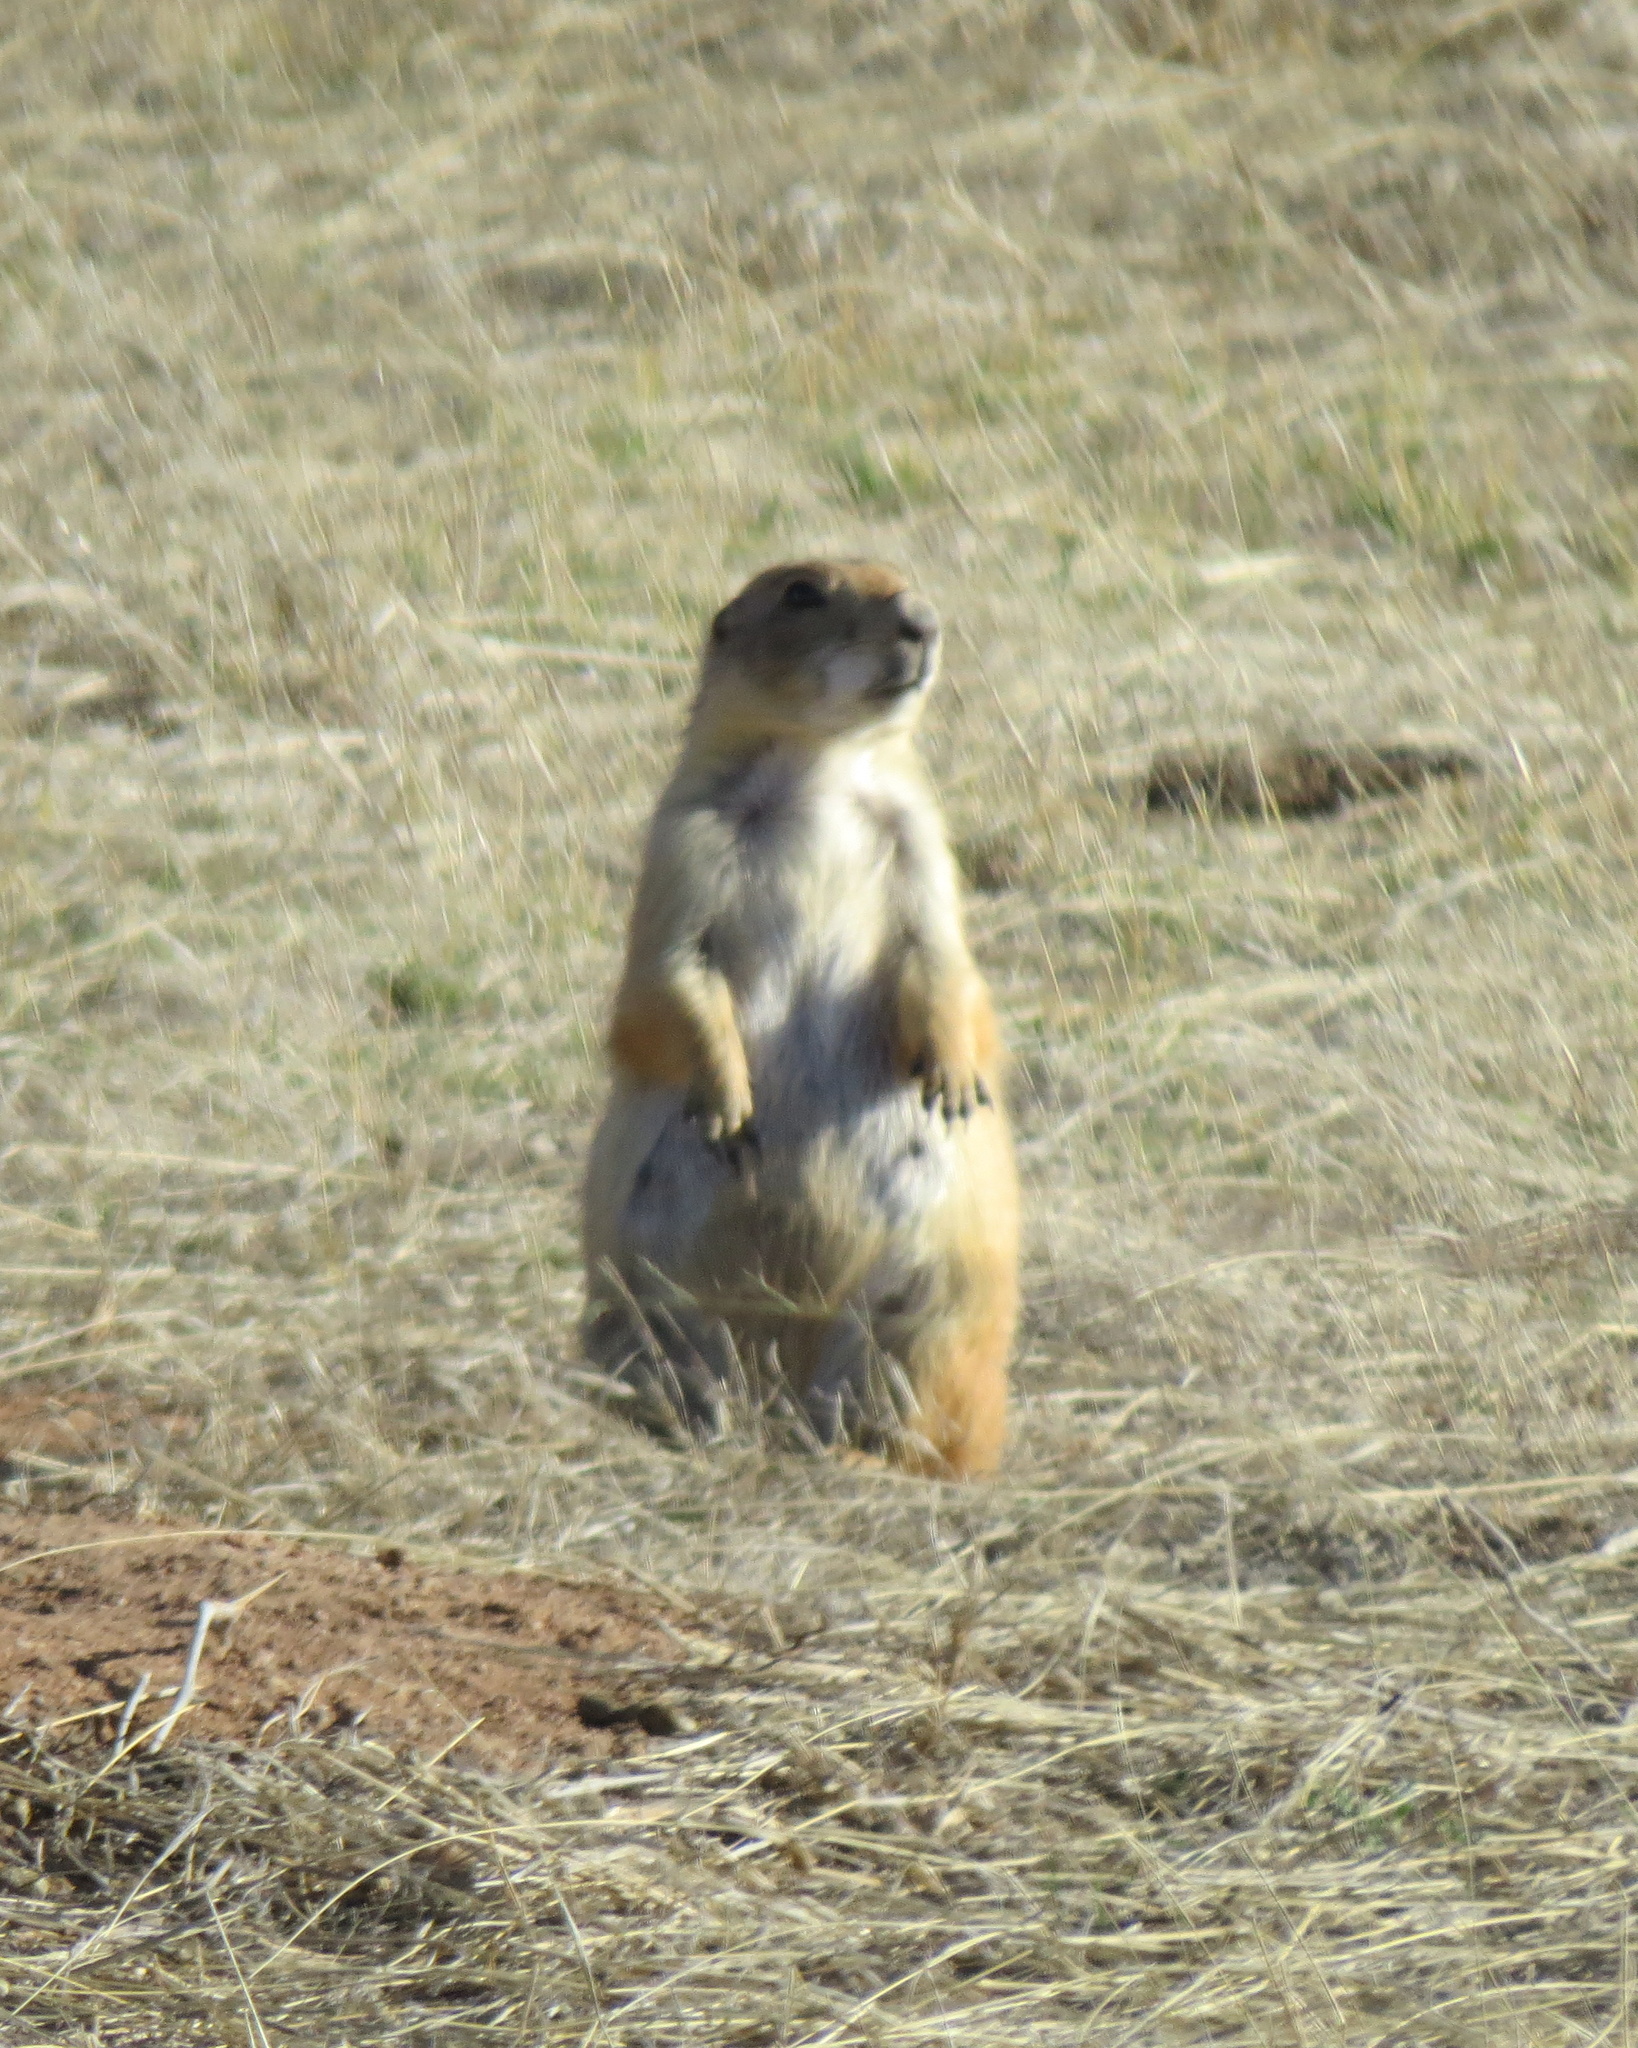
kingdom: Animalia
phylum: Chordata
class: Mammalia
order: Rodentia
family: Sciuridae
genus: Cynomys
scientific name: Cynomys ludovicianus
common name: Black-tailed prairie dog
